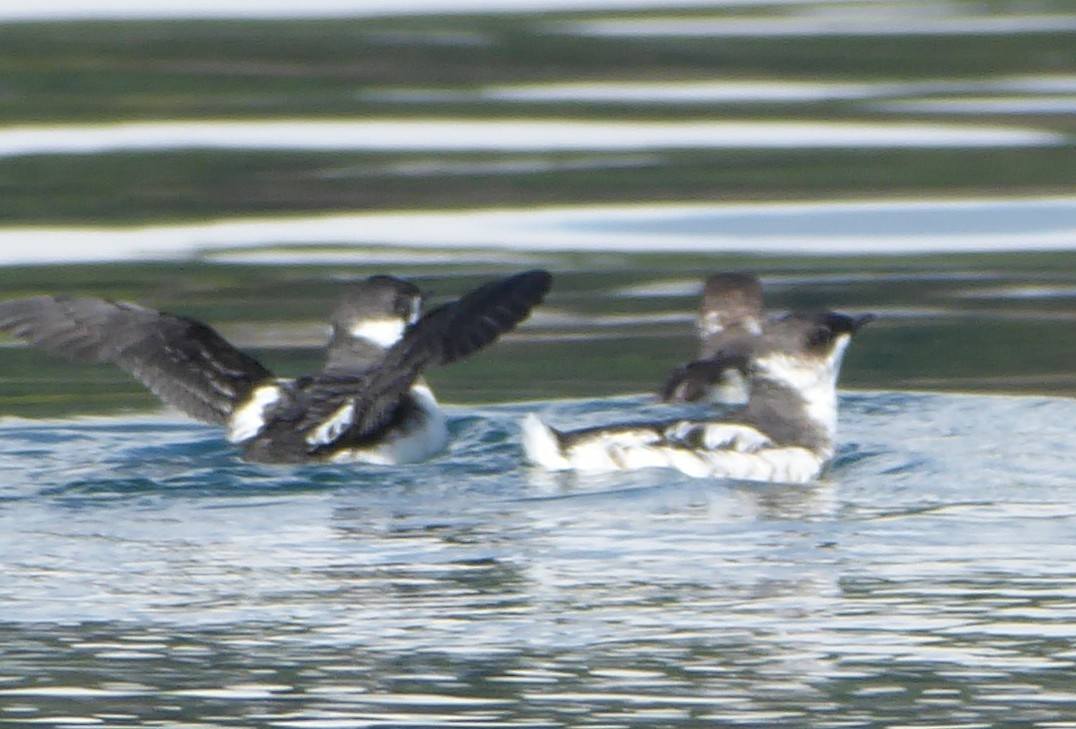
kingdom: Animalia
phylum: Chordata
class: Aves
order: Charadriiformes
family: Alcidae
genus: Brachyramphus
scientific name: Brachyramphus marmoratus
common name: Marbled murrelet
